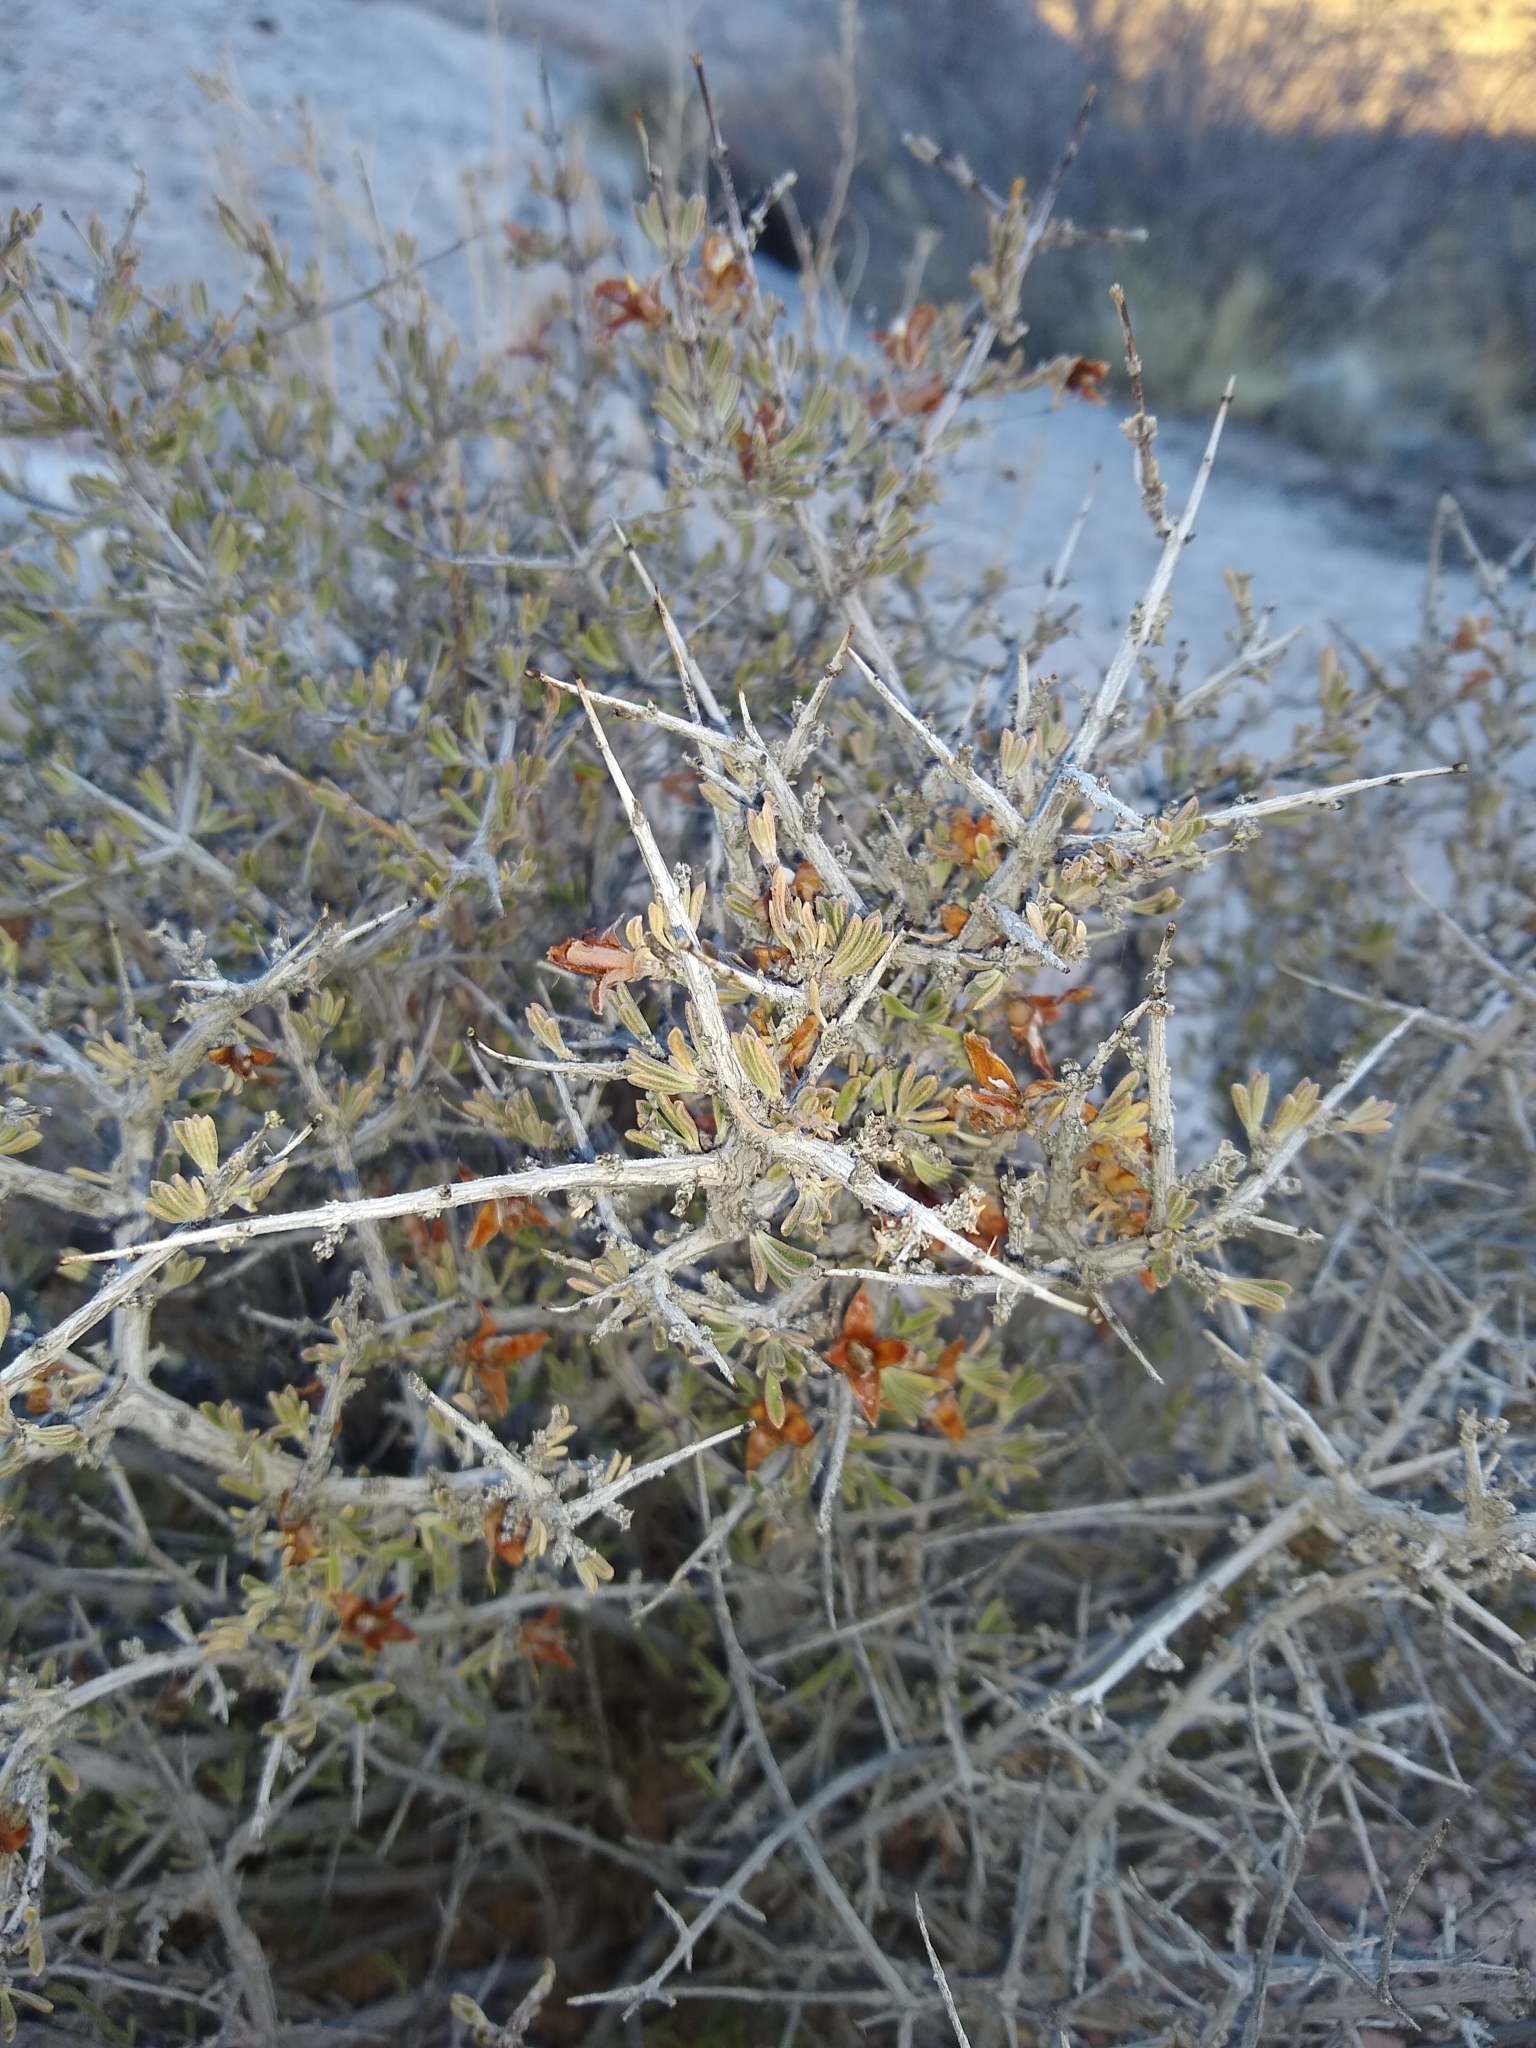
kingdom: Plantae
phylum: Tracheophyta
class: Magnoliopsida
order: Rosales
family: Rosaceae
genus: Coleogyne
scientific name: Coleogyne ramosissima
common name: Blackbrush
